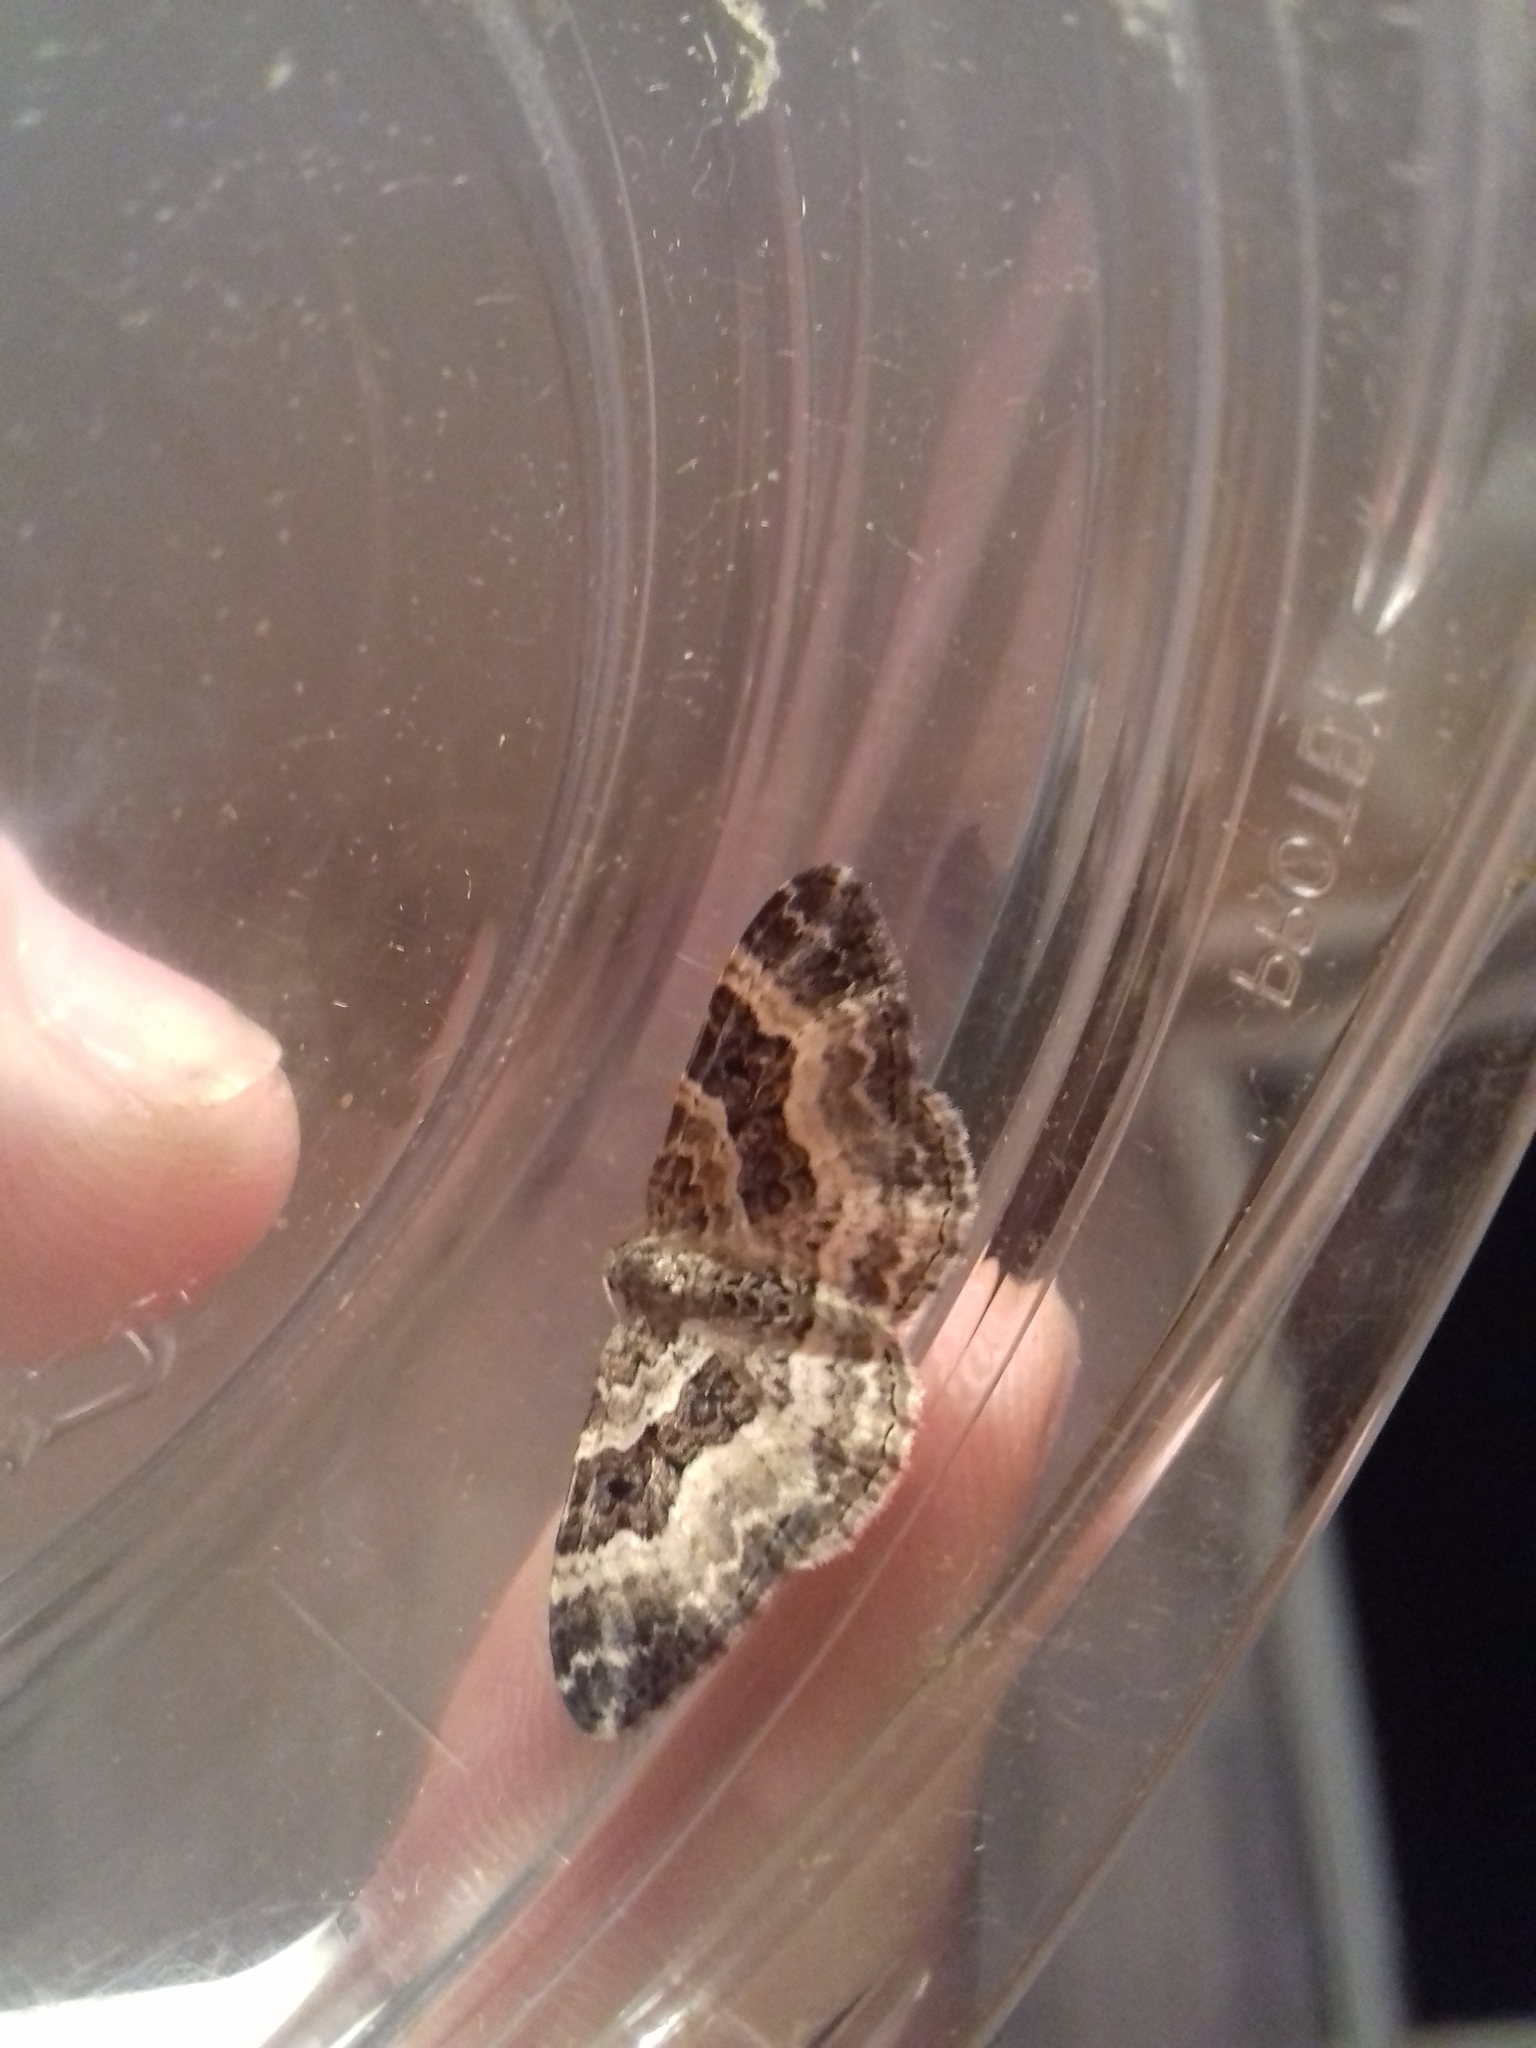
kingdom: Animalia
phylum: Arthropoda
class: Insecta
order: Lepidoptera
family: Geometridae
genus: Epirrhoe
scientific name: Epirrhoe alternata
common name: Common carpet
